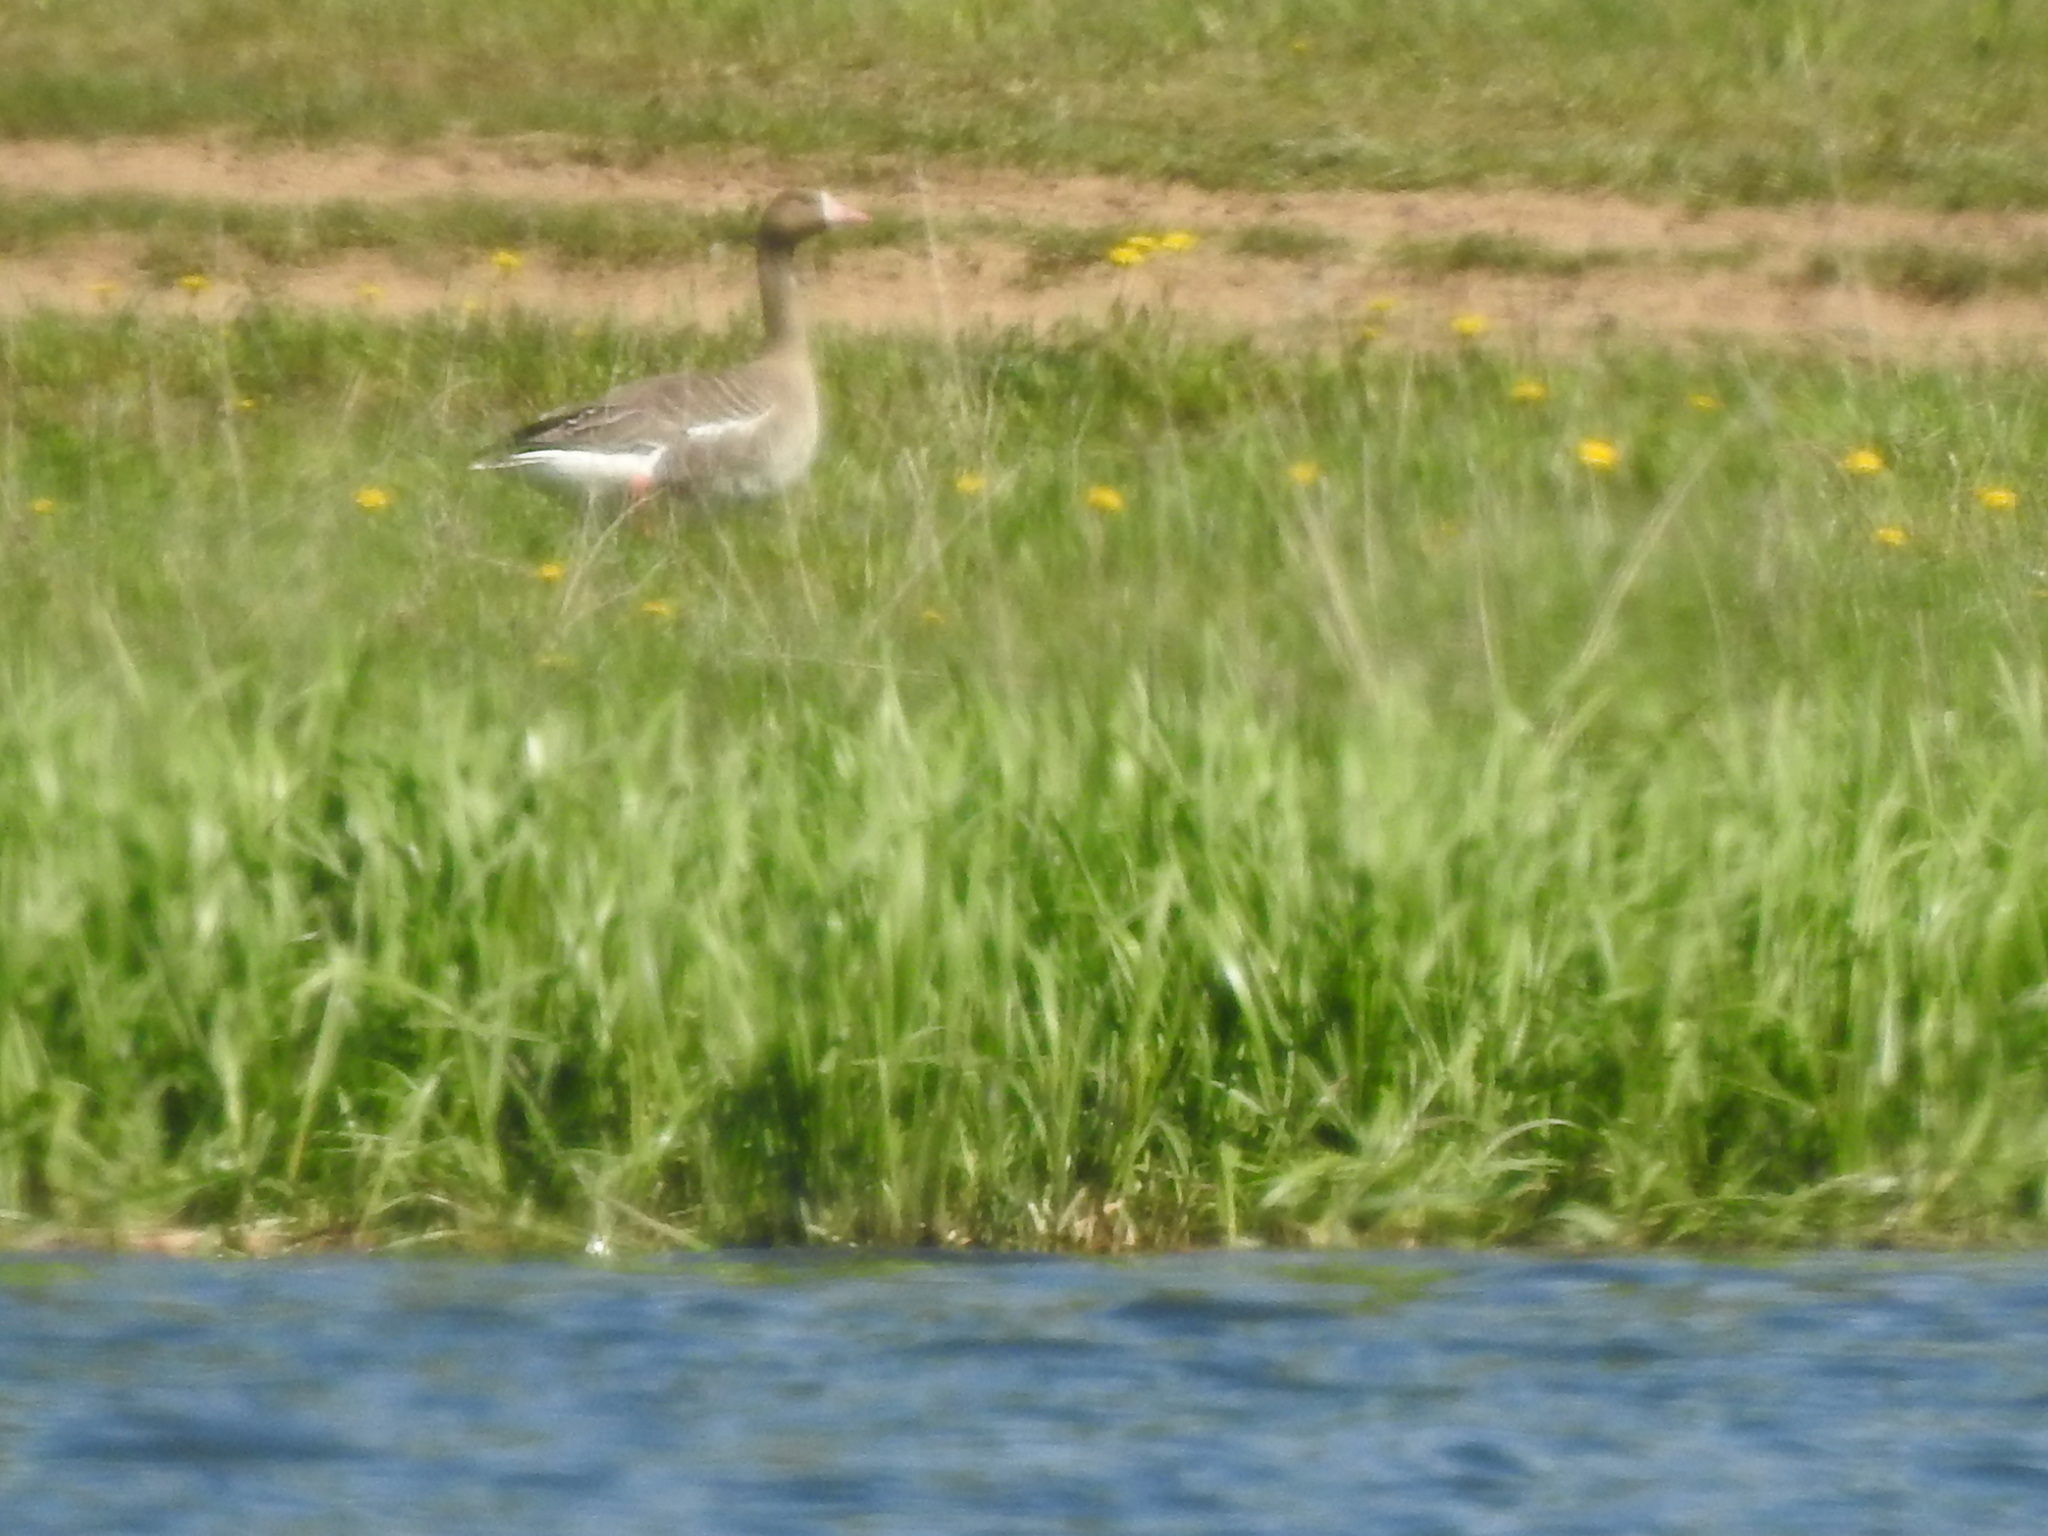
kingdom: Animalia
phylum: Chordata
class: Aves
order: Anseriformes
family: Anatidae
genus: Anser
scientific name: Anser albifrons
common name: Greater white-fronted goose
